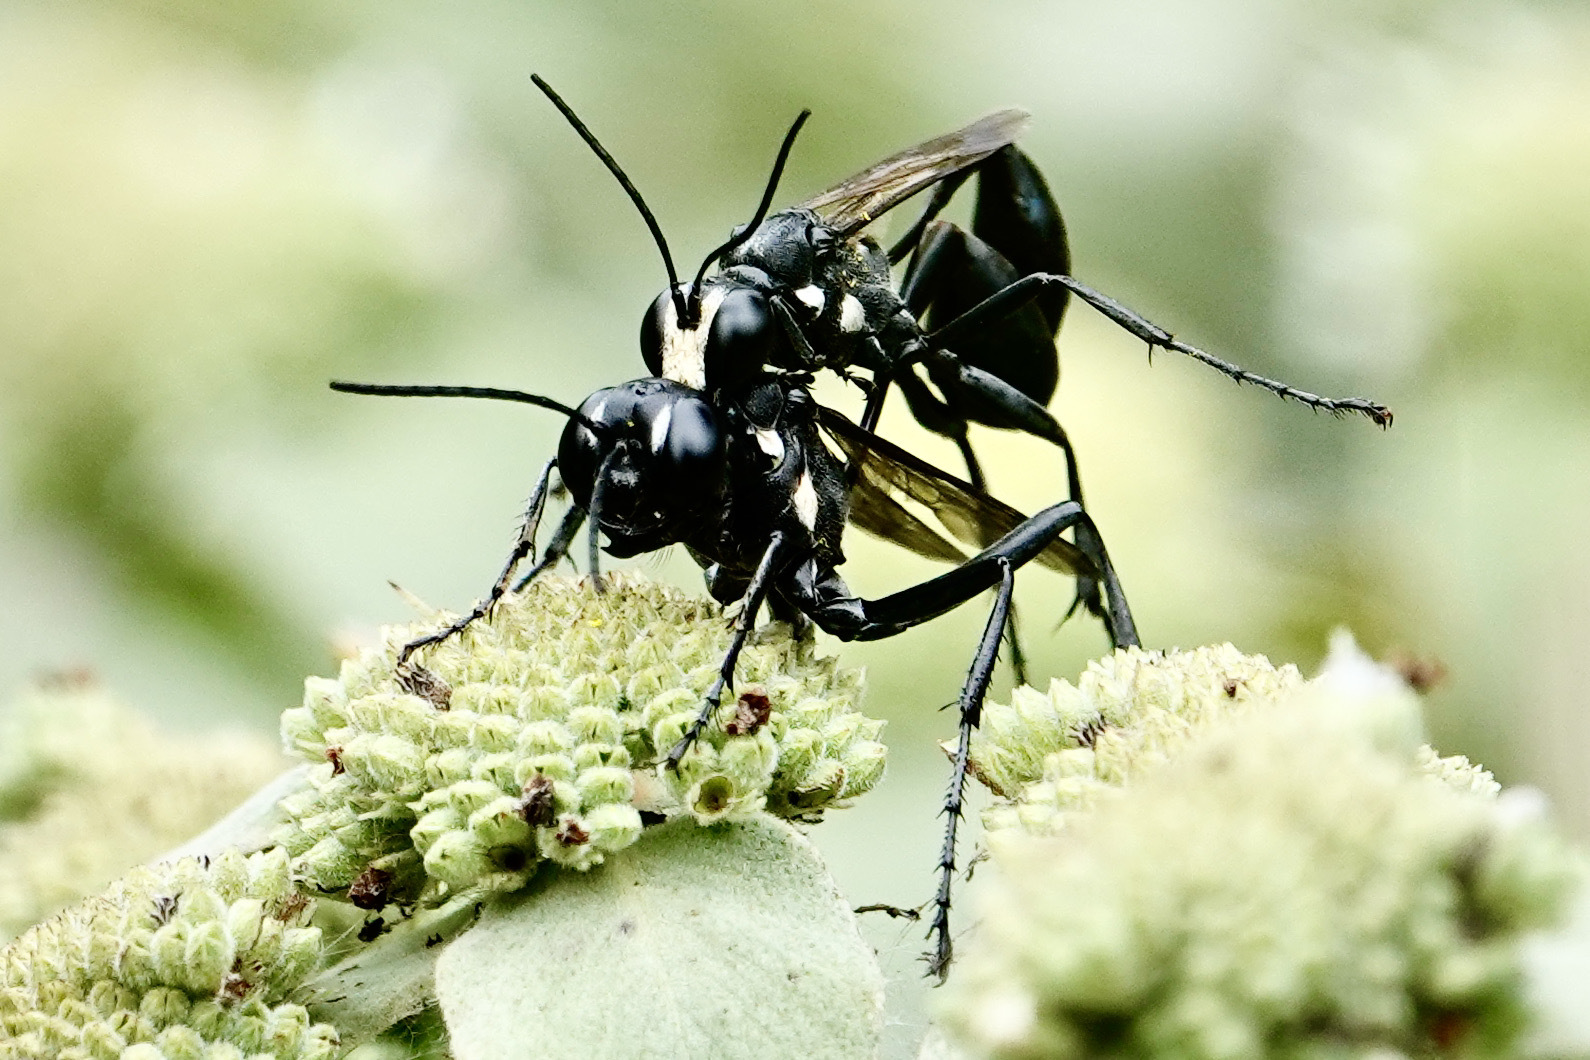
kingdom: Animalia
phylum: Arthropoda
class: Insecta
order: Hymenoptera
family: Sphecidae
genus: Eremnophila
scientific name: Eremnophila aureonotata
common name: Gold-marked thread-waisted wasp
